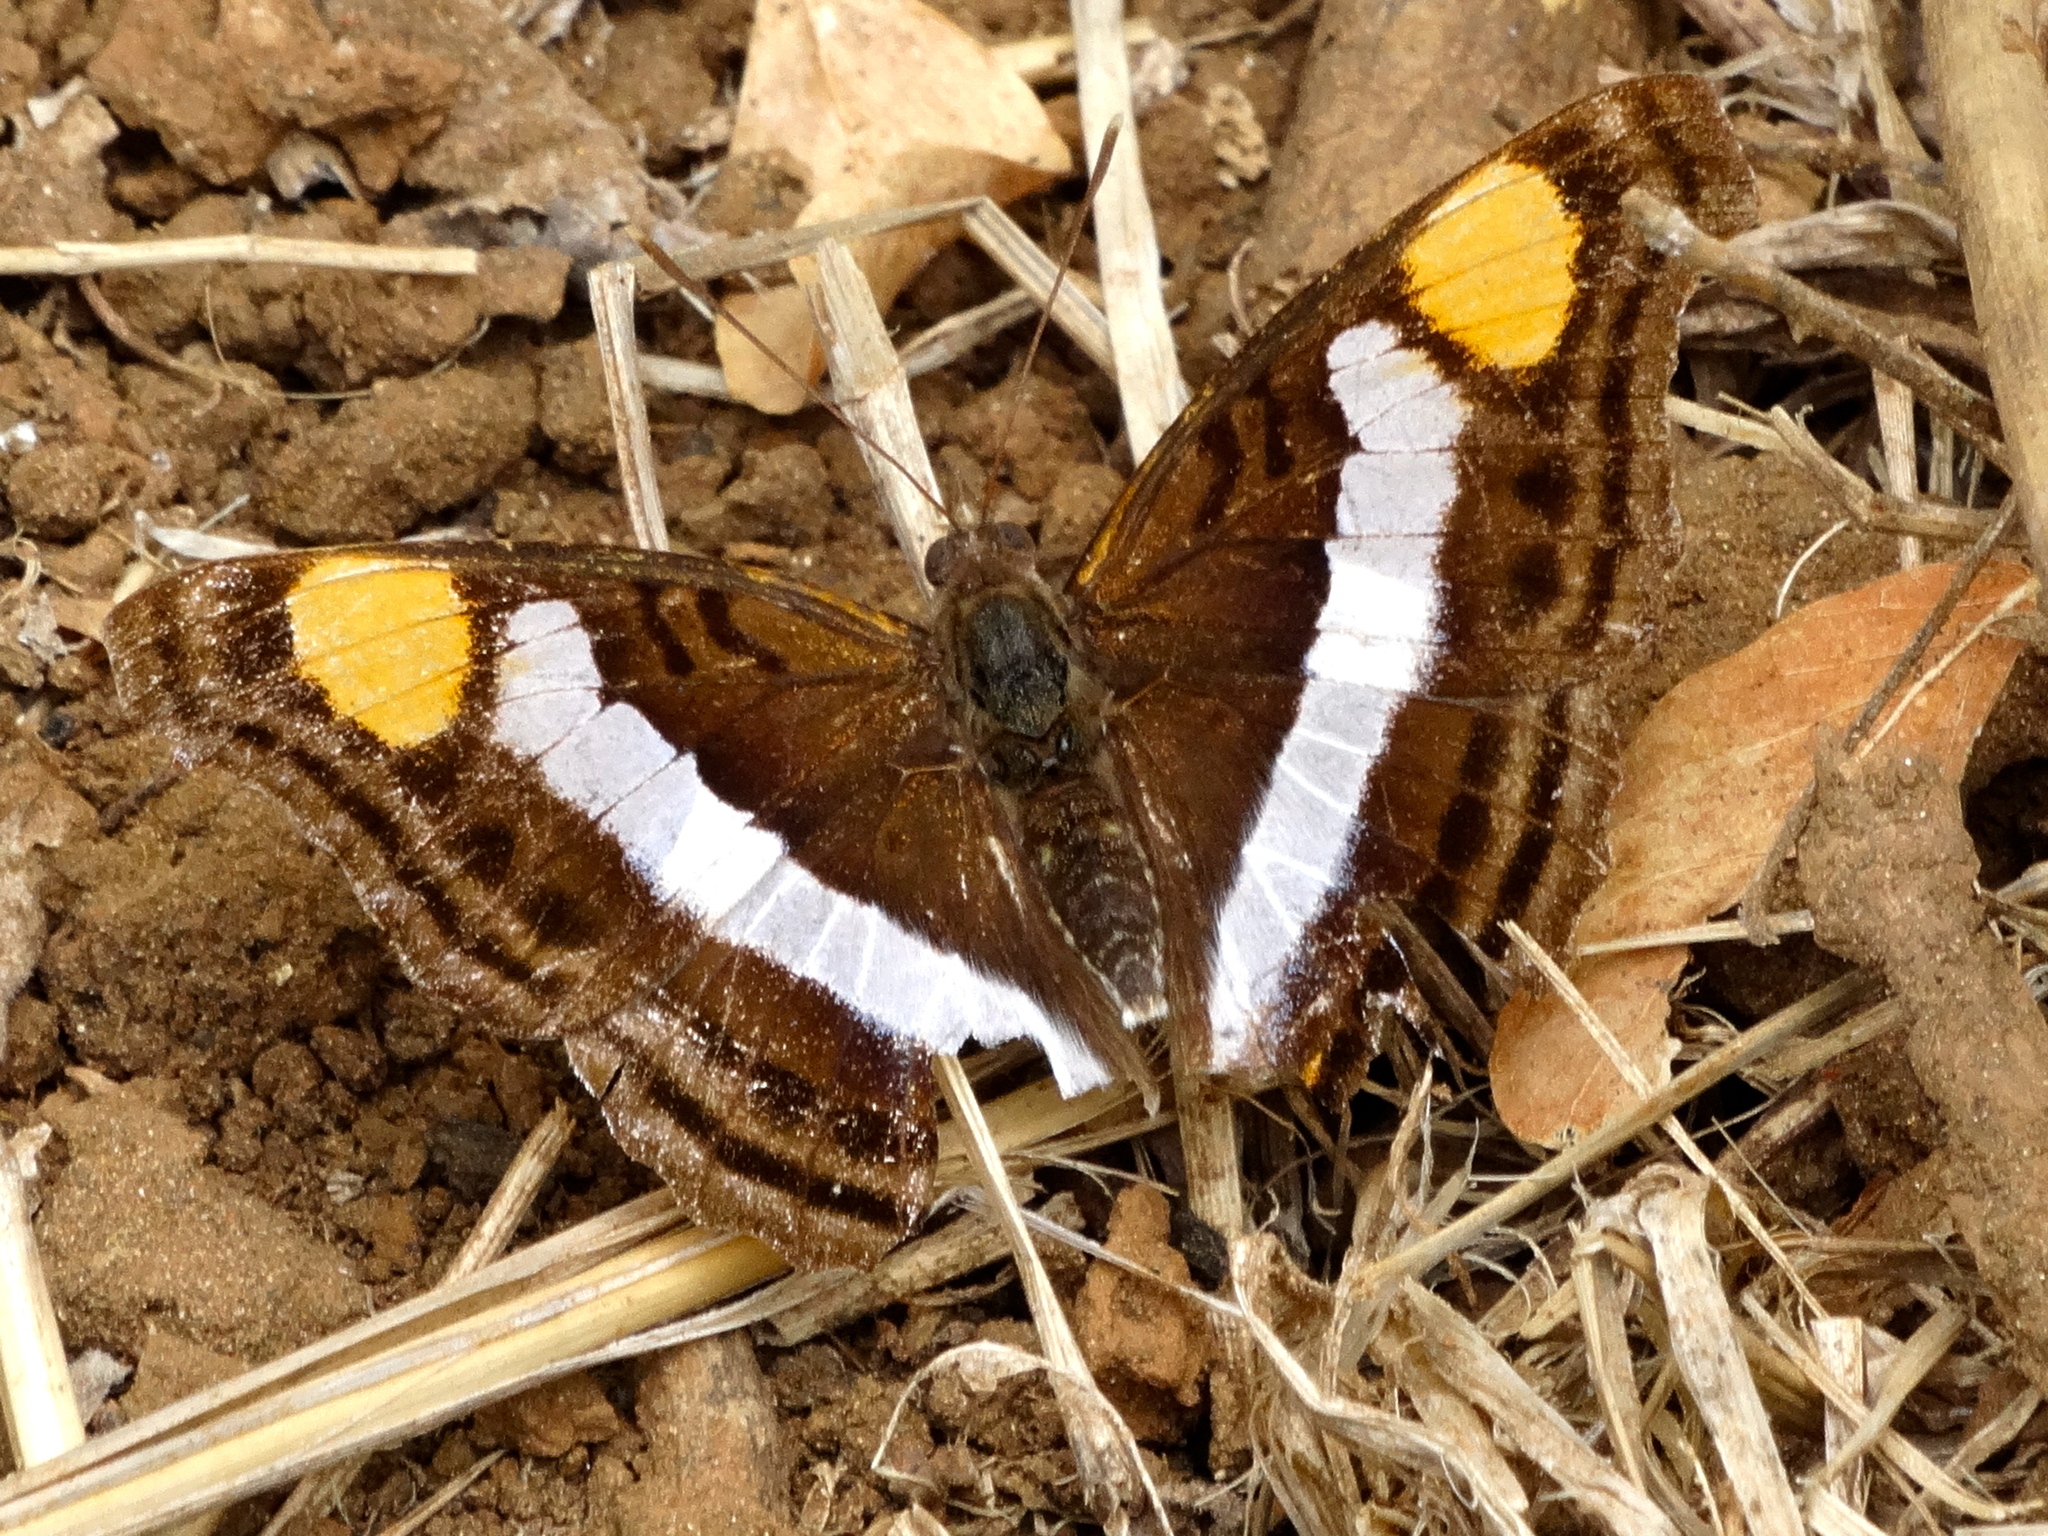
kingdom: Animalia
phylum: Arthropoda
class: Insecta
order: Lepidoptera
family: Nymphalidae
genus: Doxocopa
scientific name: Doxocopa laure
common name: Silver emperor
